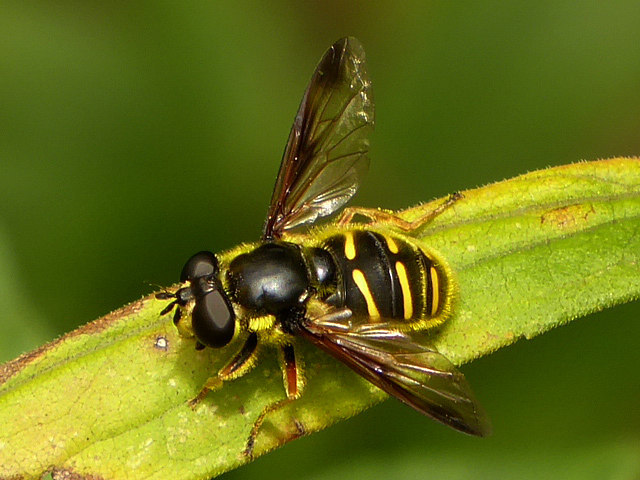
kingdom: Animalia
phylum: Arthropoda
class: Insecta
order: Diptera
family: Syrphidae
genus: Sericomyia
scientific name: Sericomyia chrysotoxoides
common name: Oblique-banded pond fly
